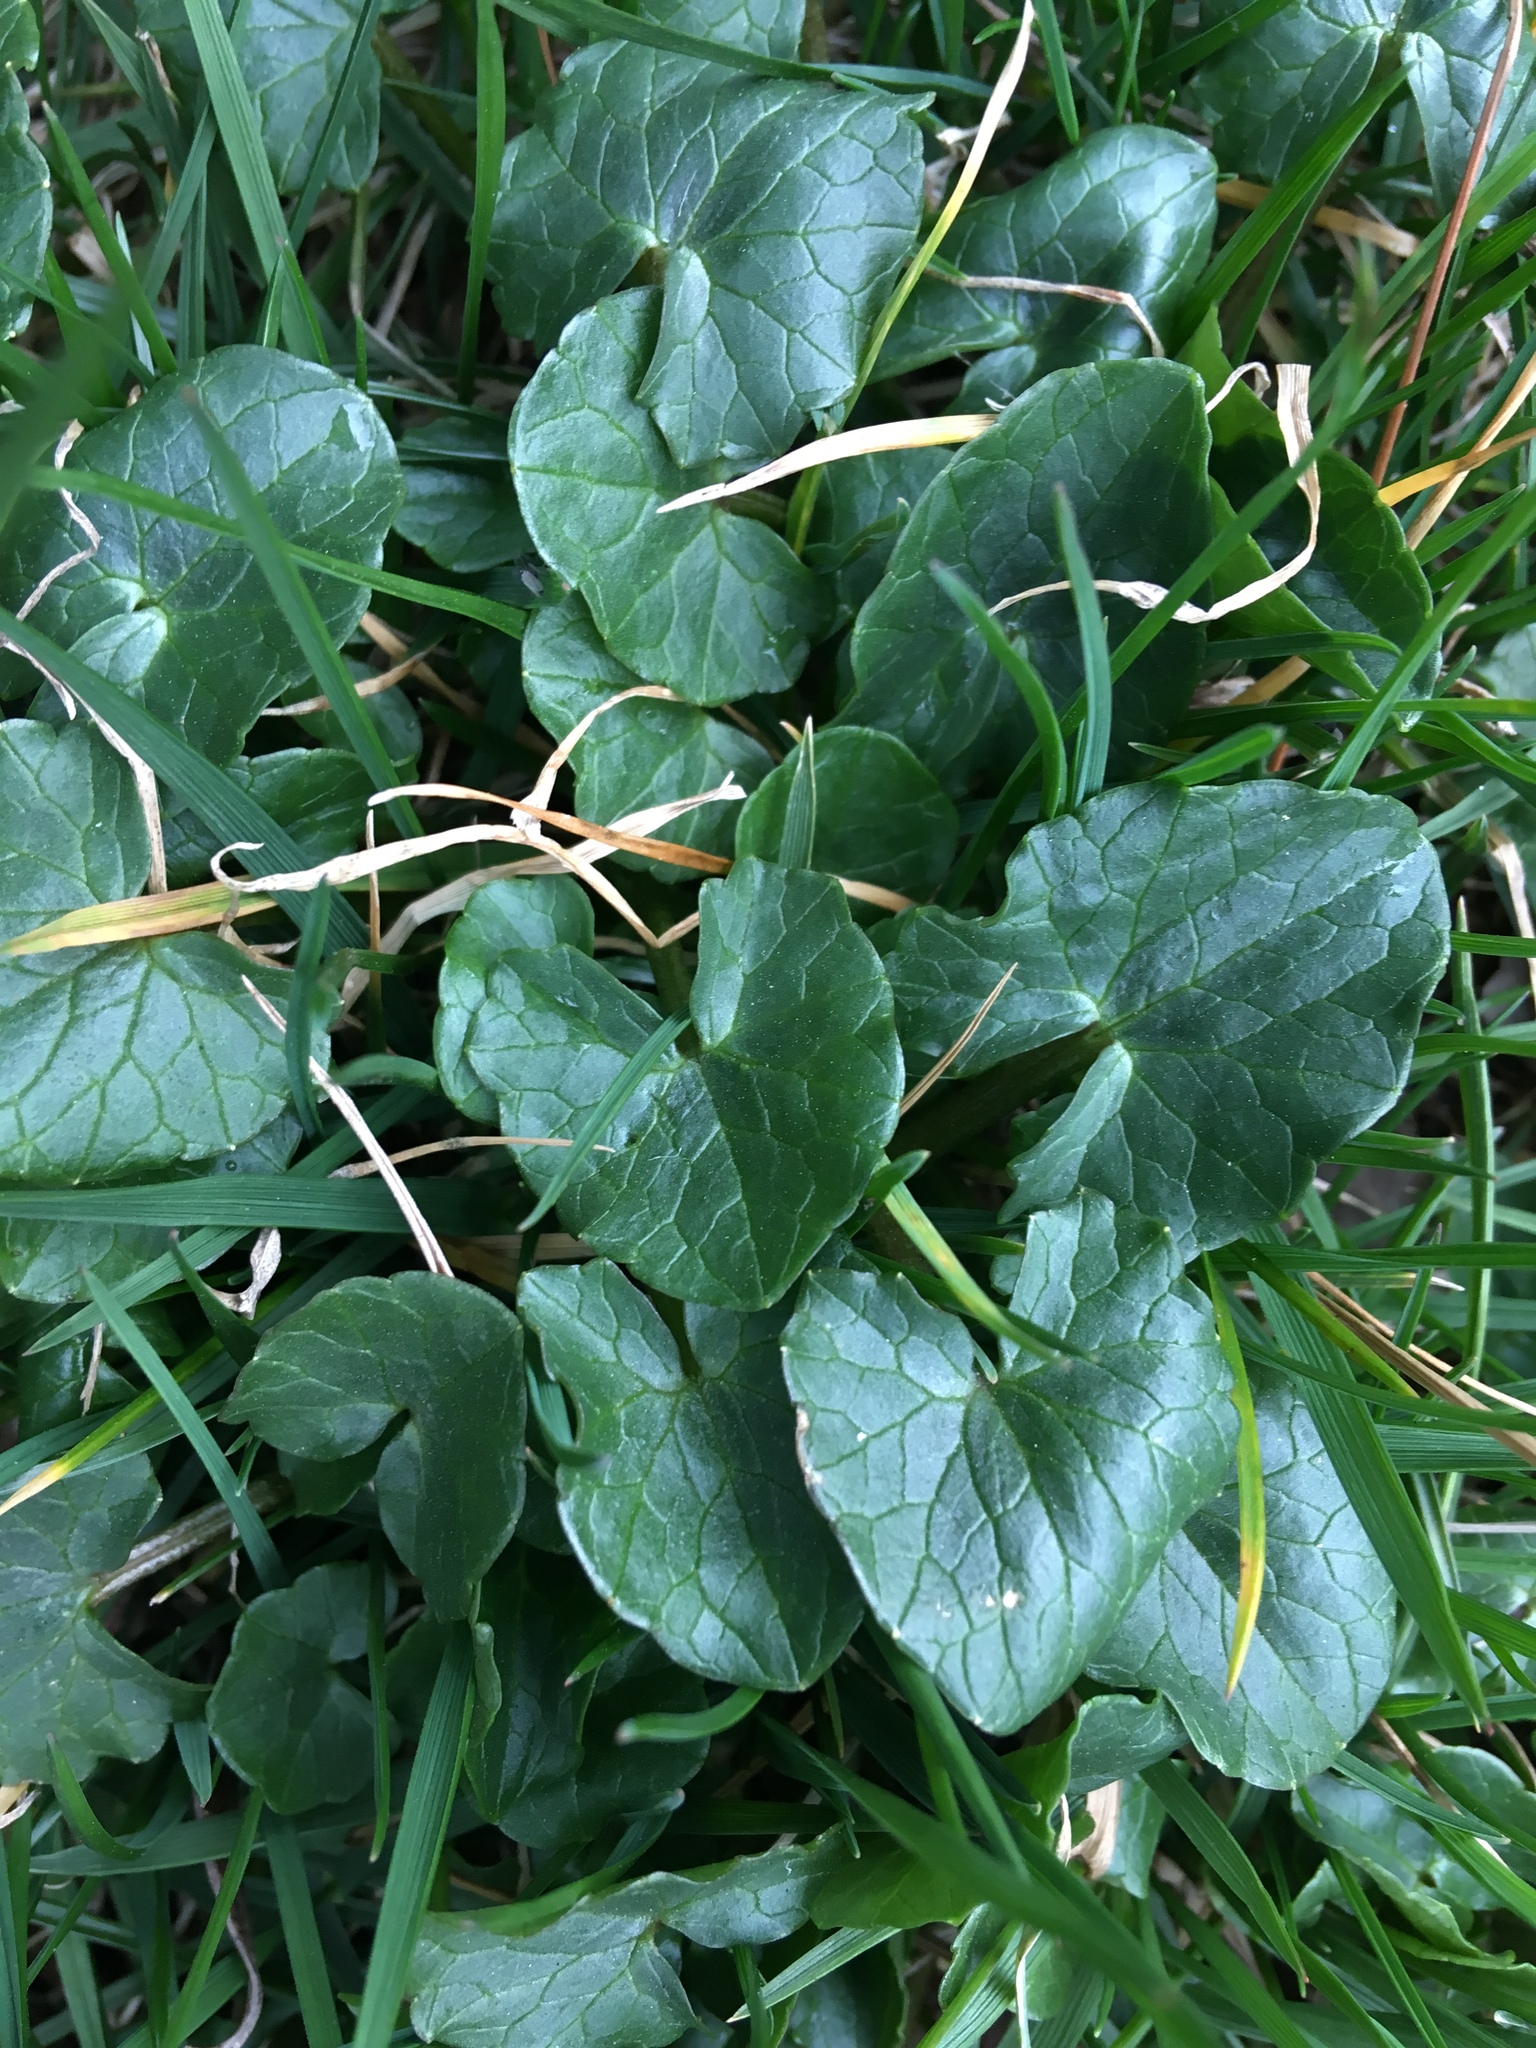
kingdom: Plantae
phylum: Tracheophyta
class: Magnoliopsida
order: Ranunculales
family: Ranunculaceae
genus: Ficaria
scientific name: Ficaria verna
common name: Lesser celandine
